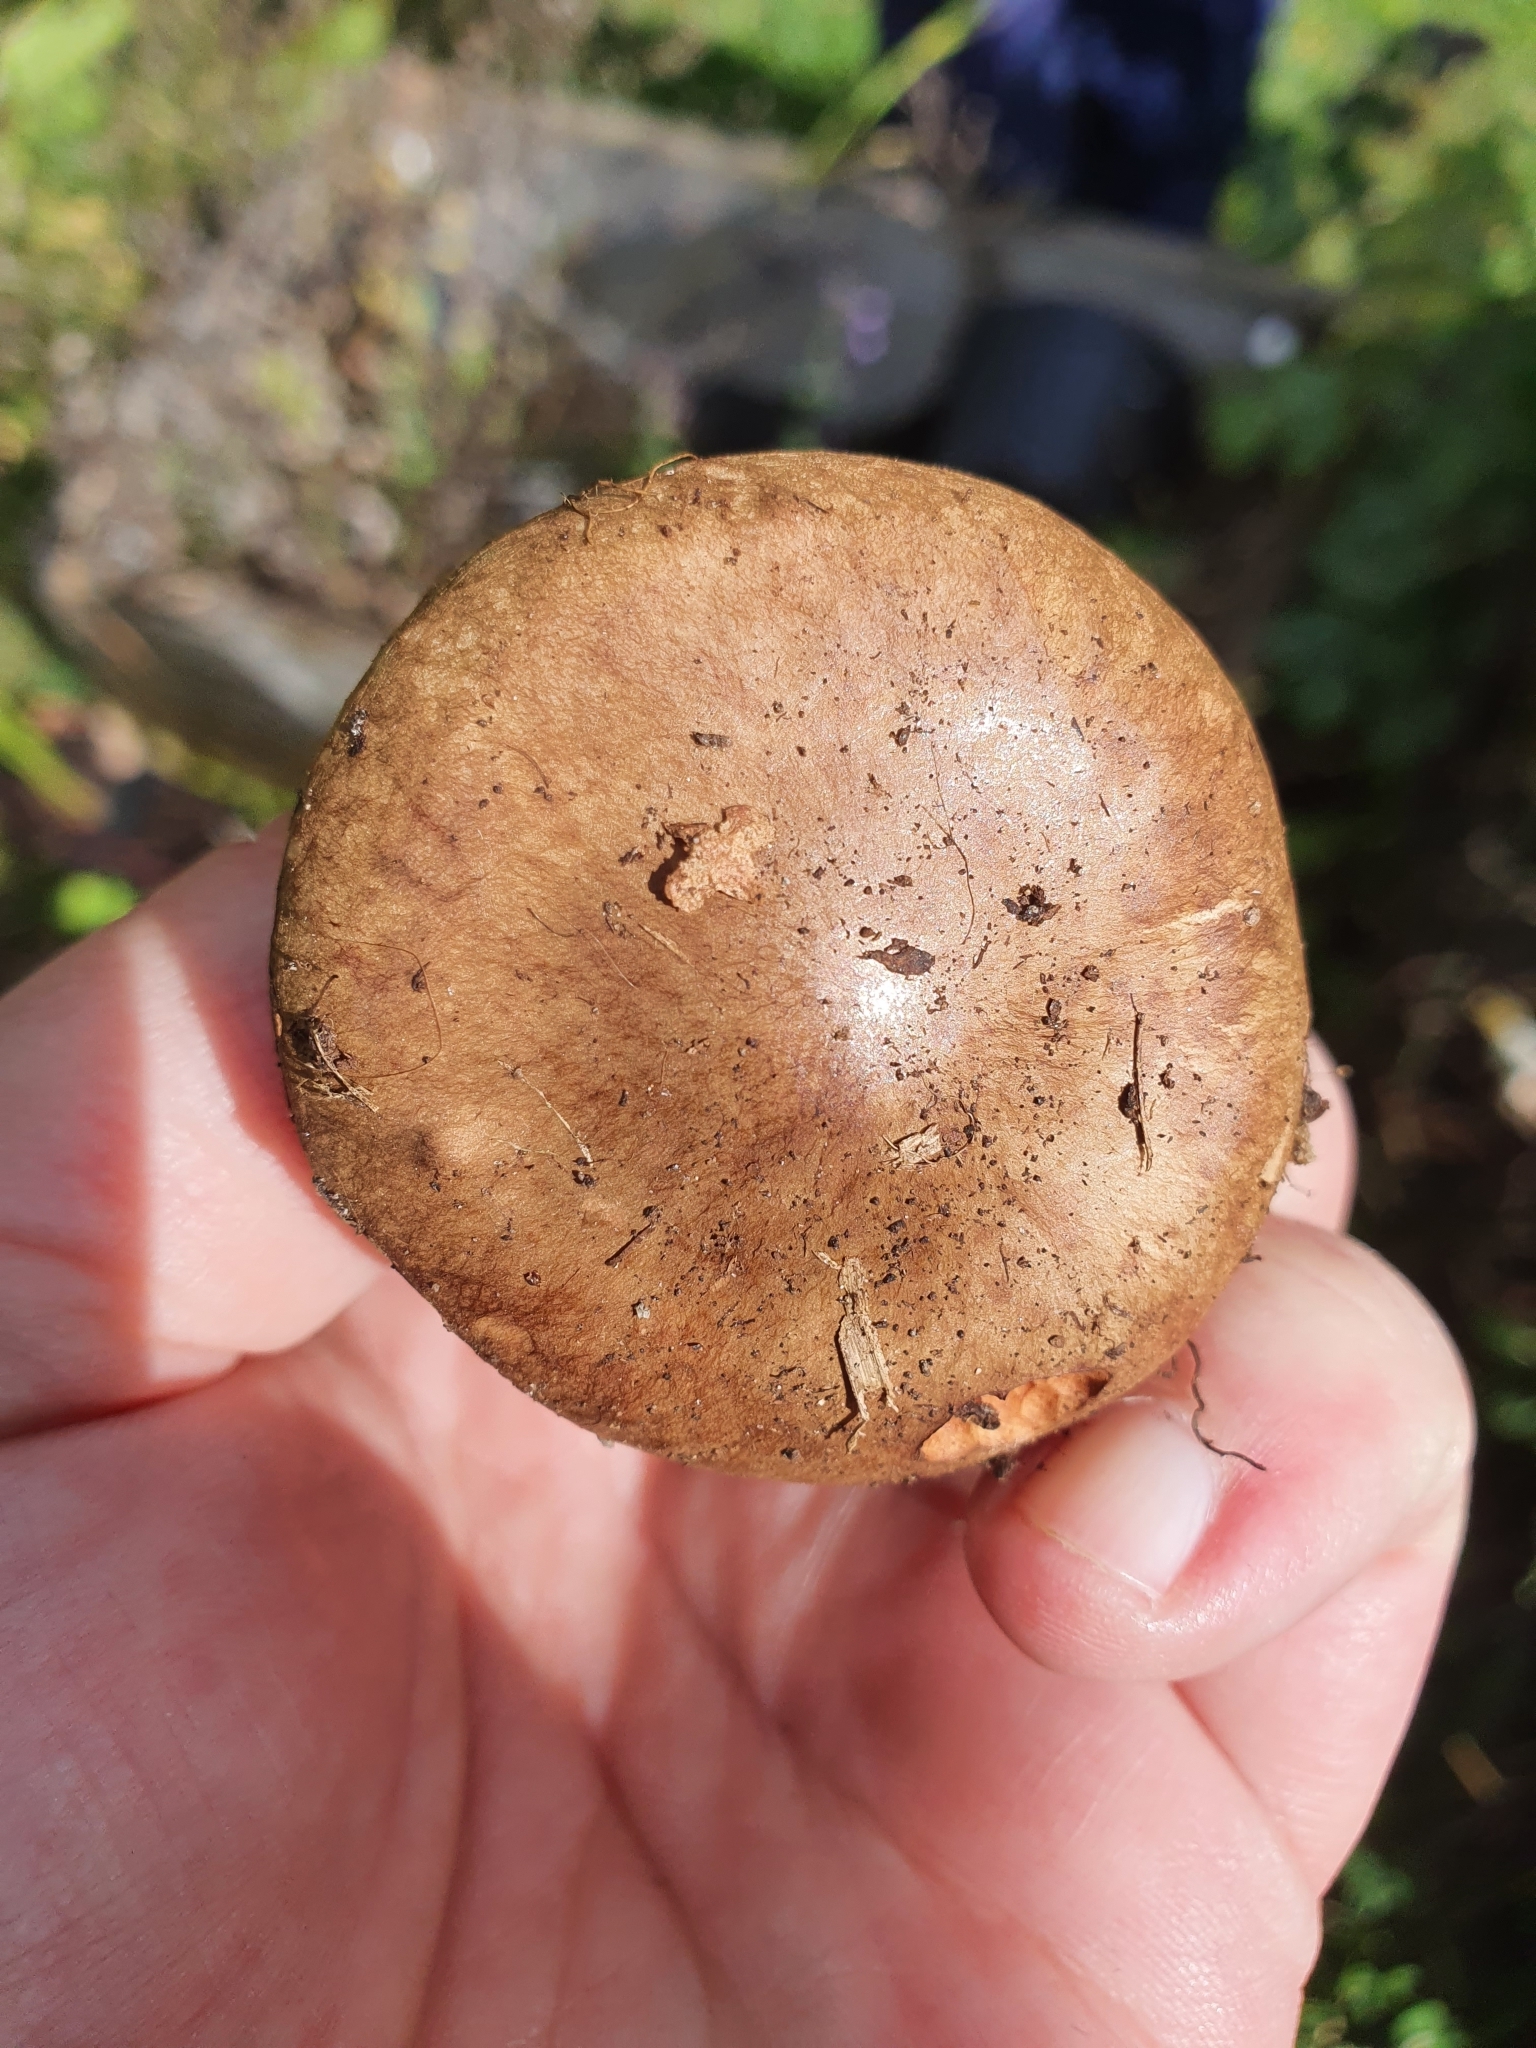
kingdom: Fungi
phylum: Basidiomycota
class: Agaricomycetes
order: Boletales
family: Paxillaceae
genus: Paxillus
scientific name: Paxillus involutus
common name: Brown roll rim
